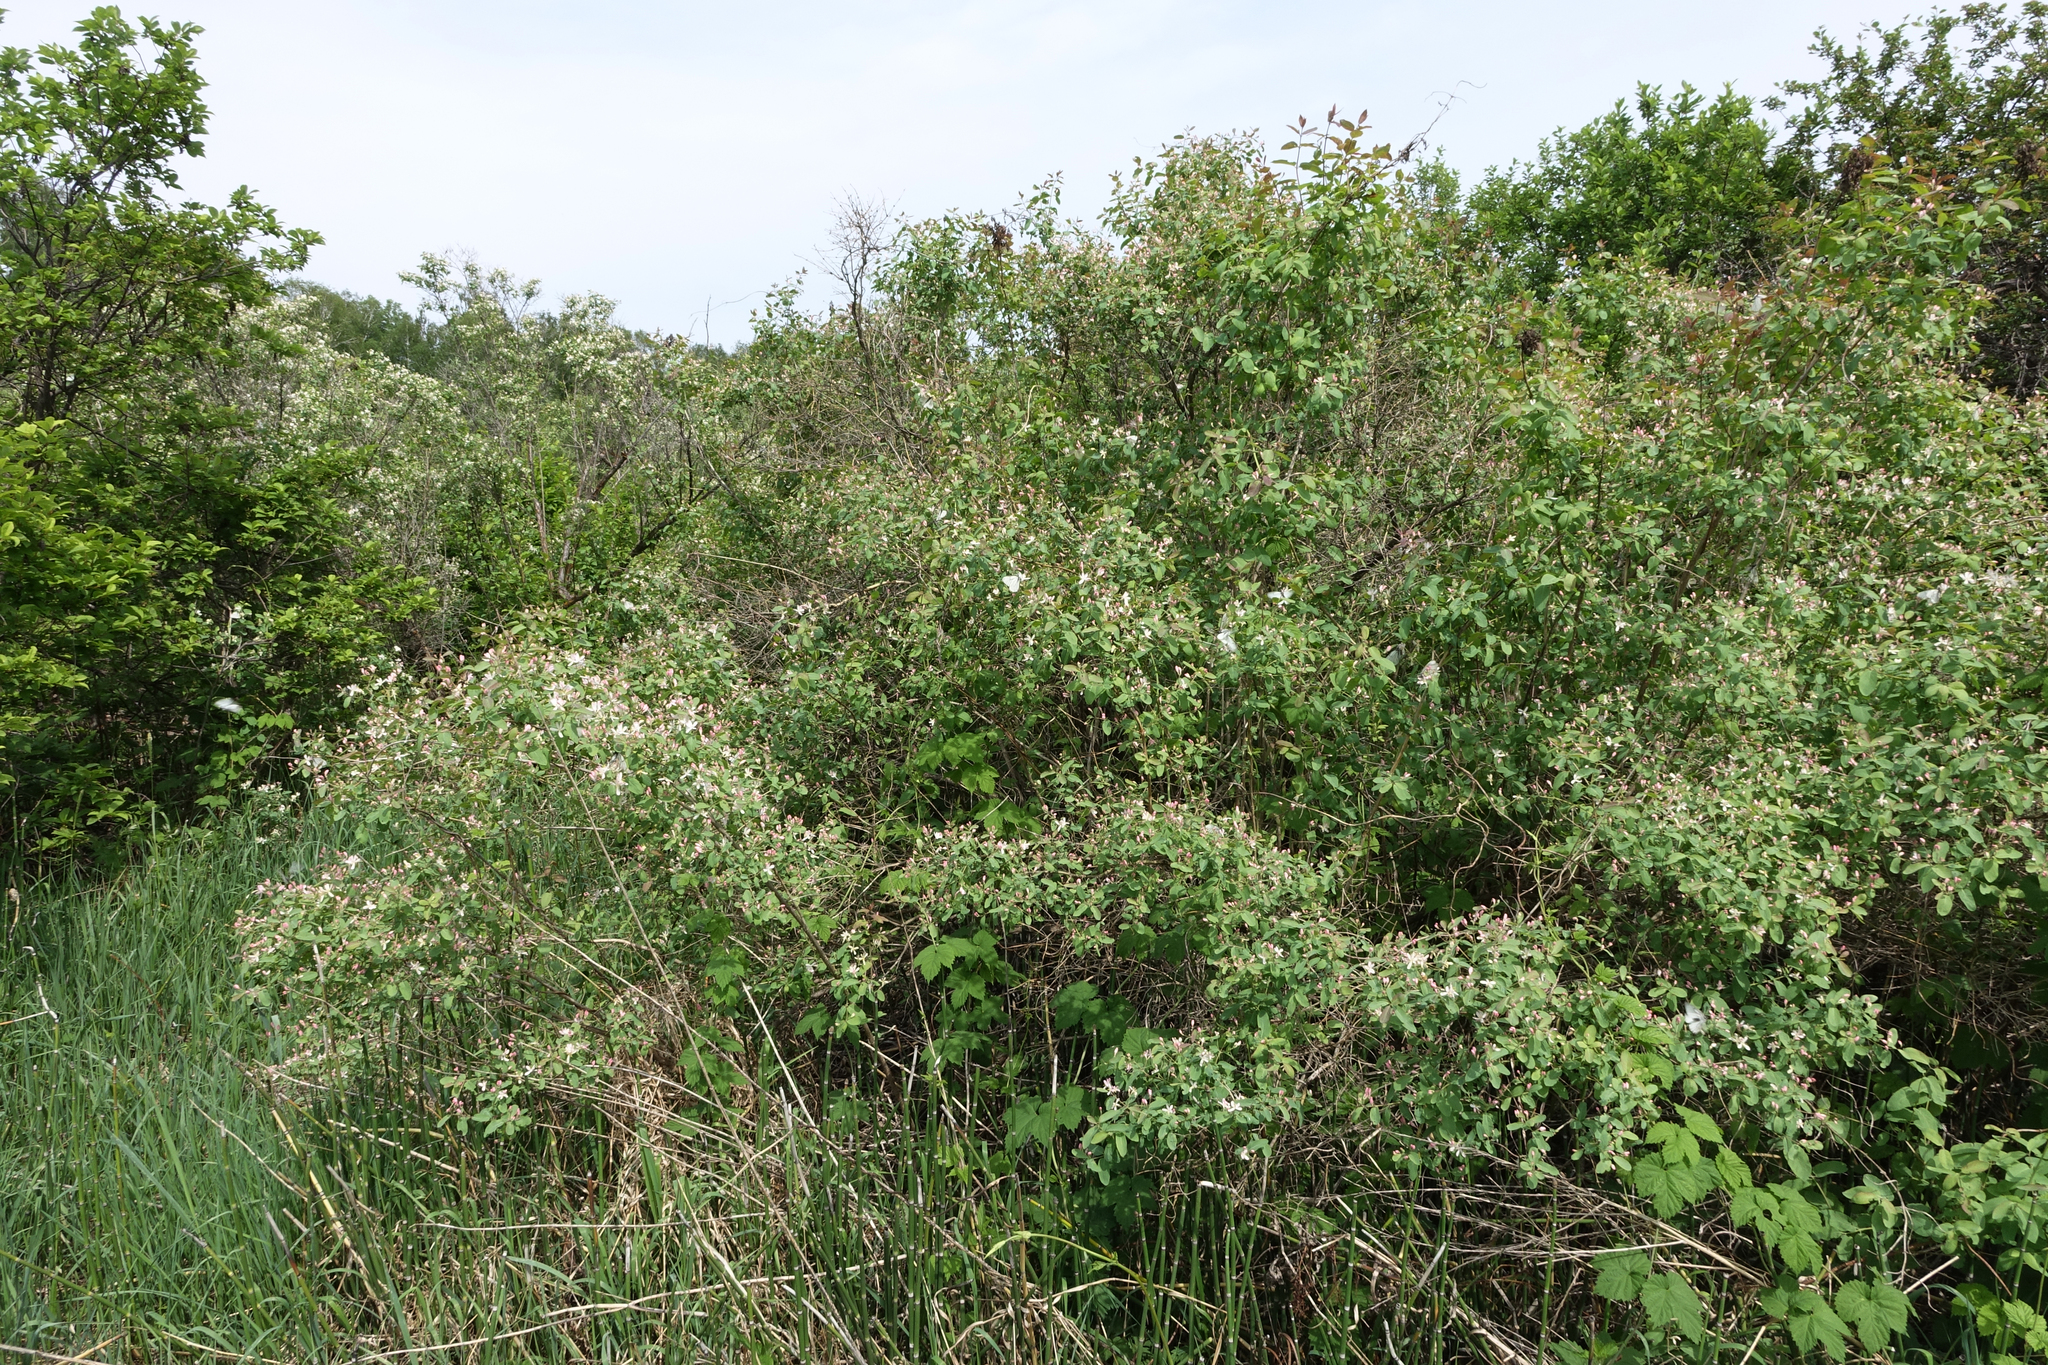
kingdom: Plantae
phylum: Tracheophyta
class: Magnoliopsida
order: Dipsacales
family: Caprifoliaceae
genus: Lonicera
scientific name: Lonicera tatarica
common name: Tatarian honeysuckle
